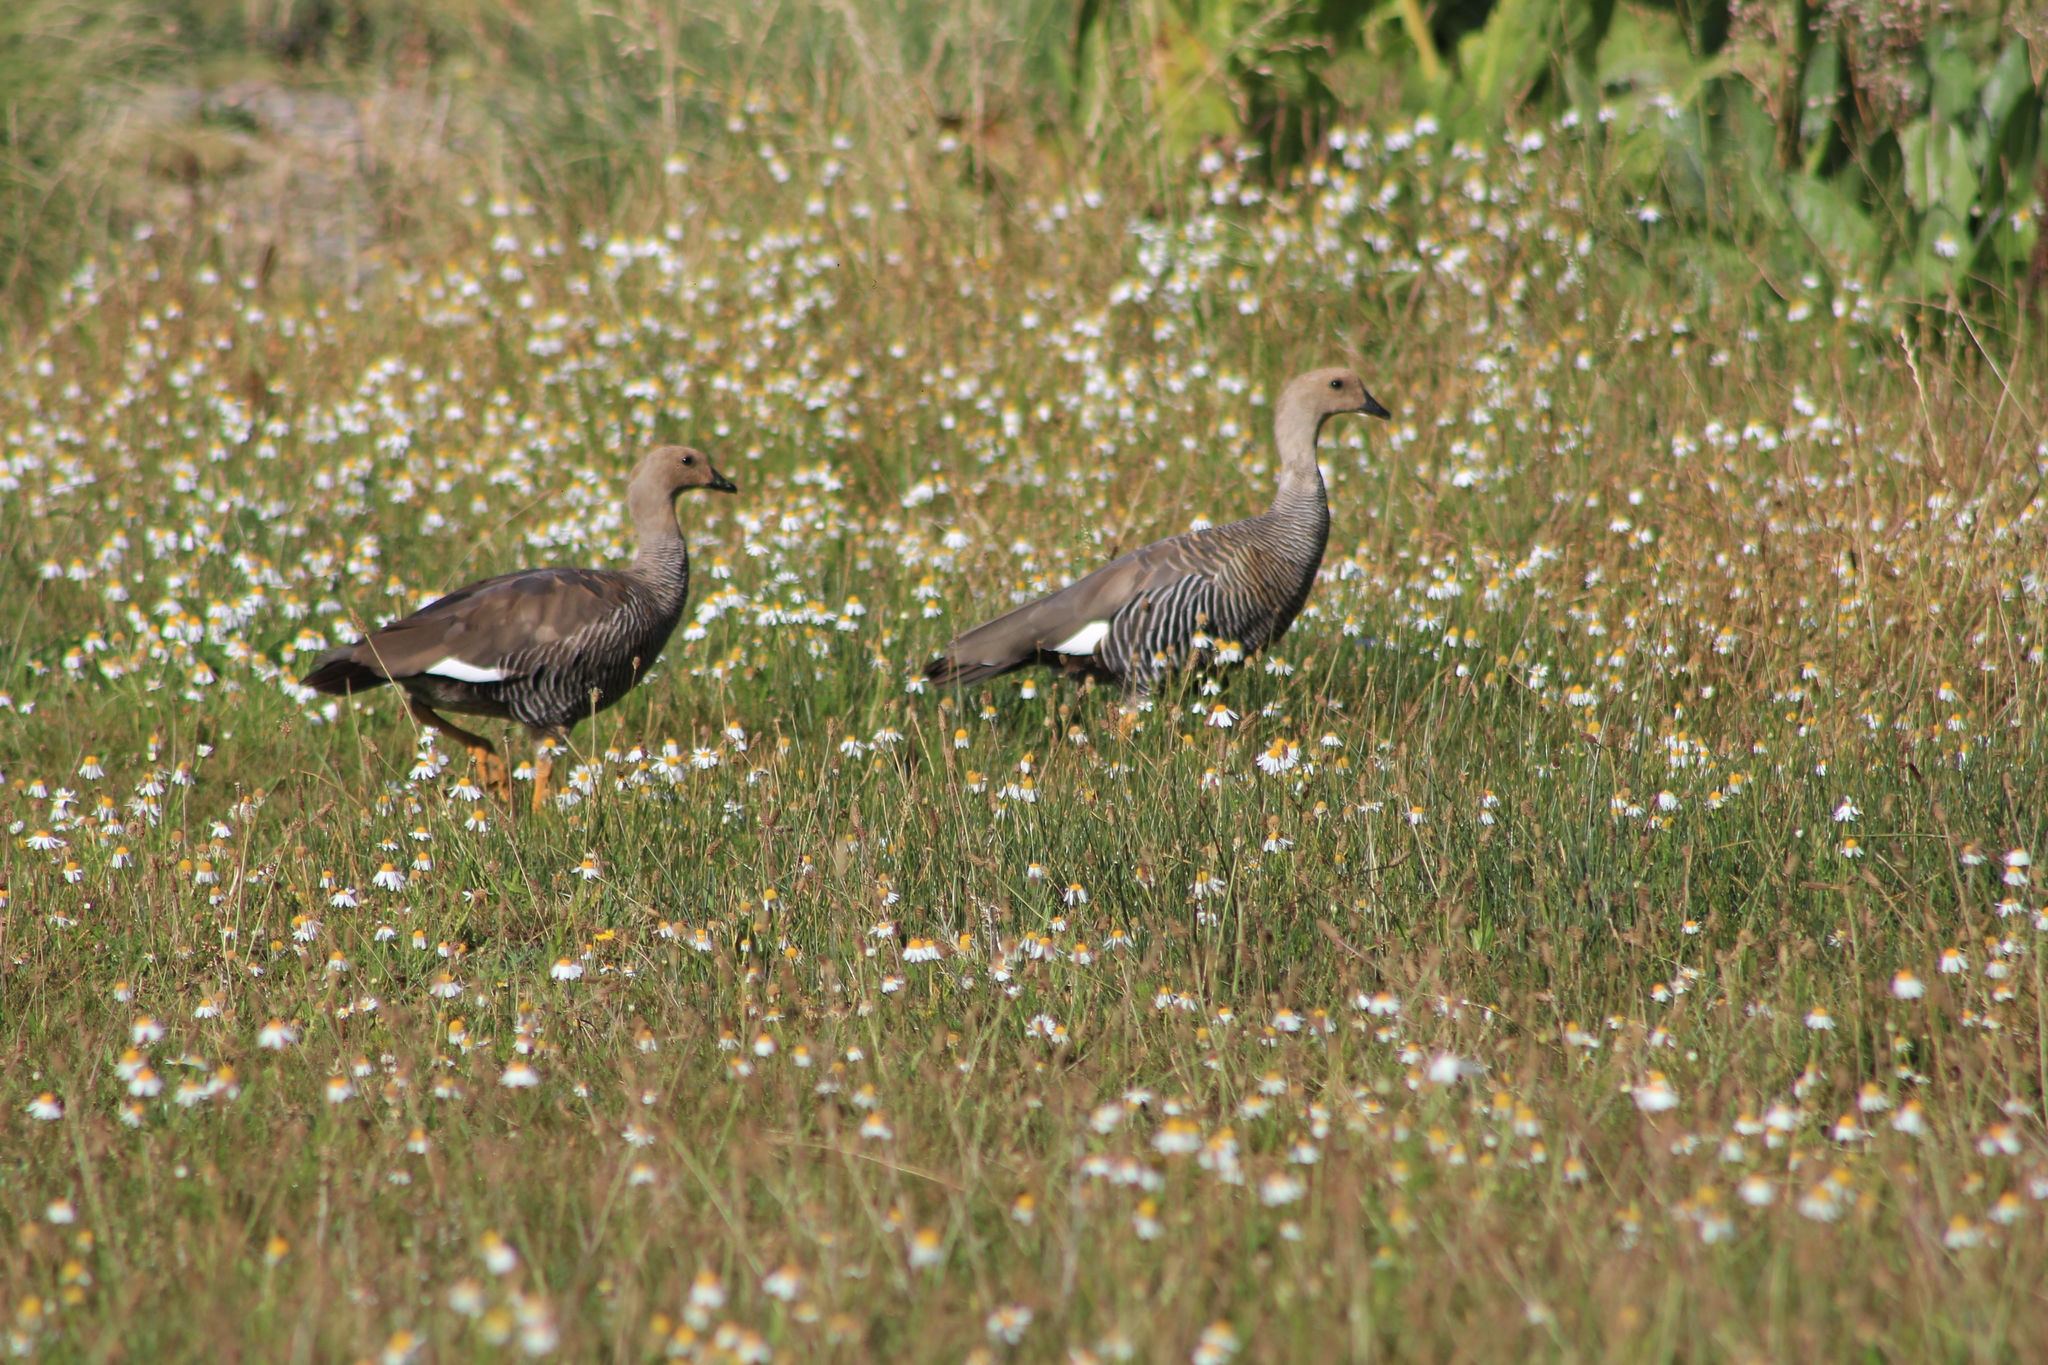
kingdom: Animalia
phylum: Chordata
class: Aves
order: Anseriformes
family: Anatidae
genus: Chloephaga
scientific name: Chloephaga picta
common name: Upland goose
